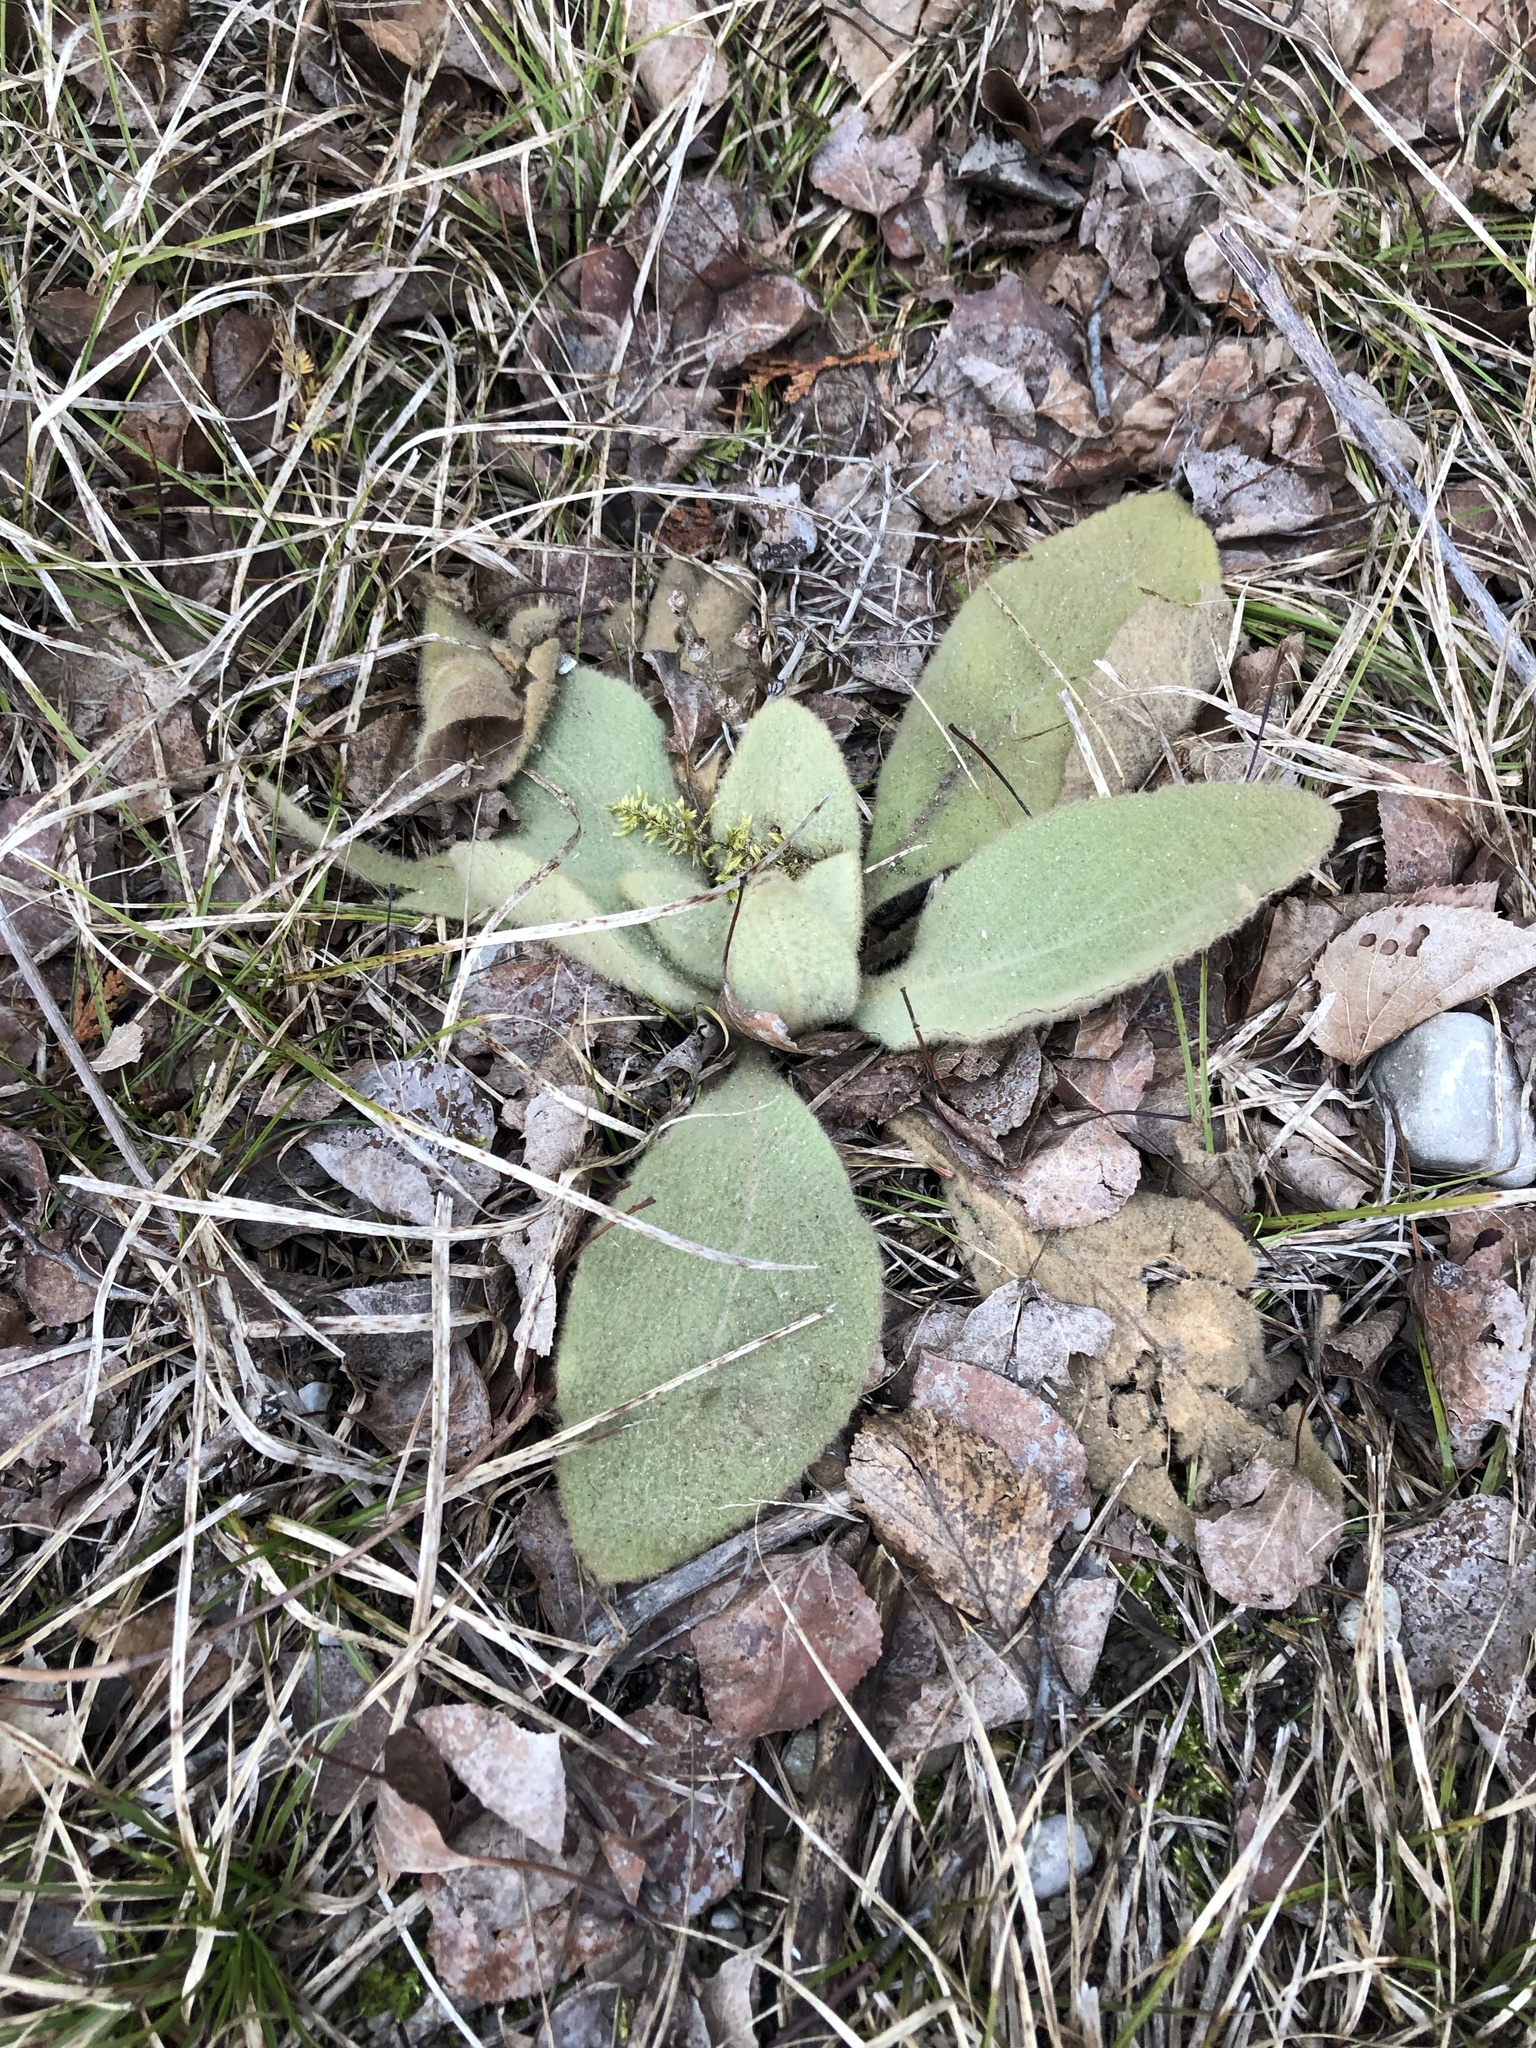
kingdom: Plantae
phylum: Tracheophyta
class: Magnoliopsida
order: Lamiales
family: Scrophulariaceae
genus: Verbascum
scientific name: Verbascum thapsus
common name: Common mullein
